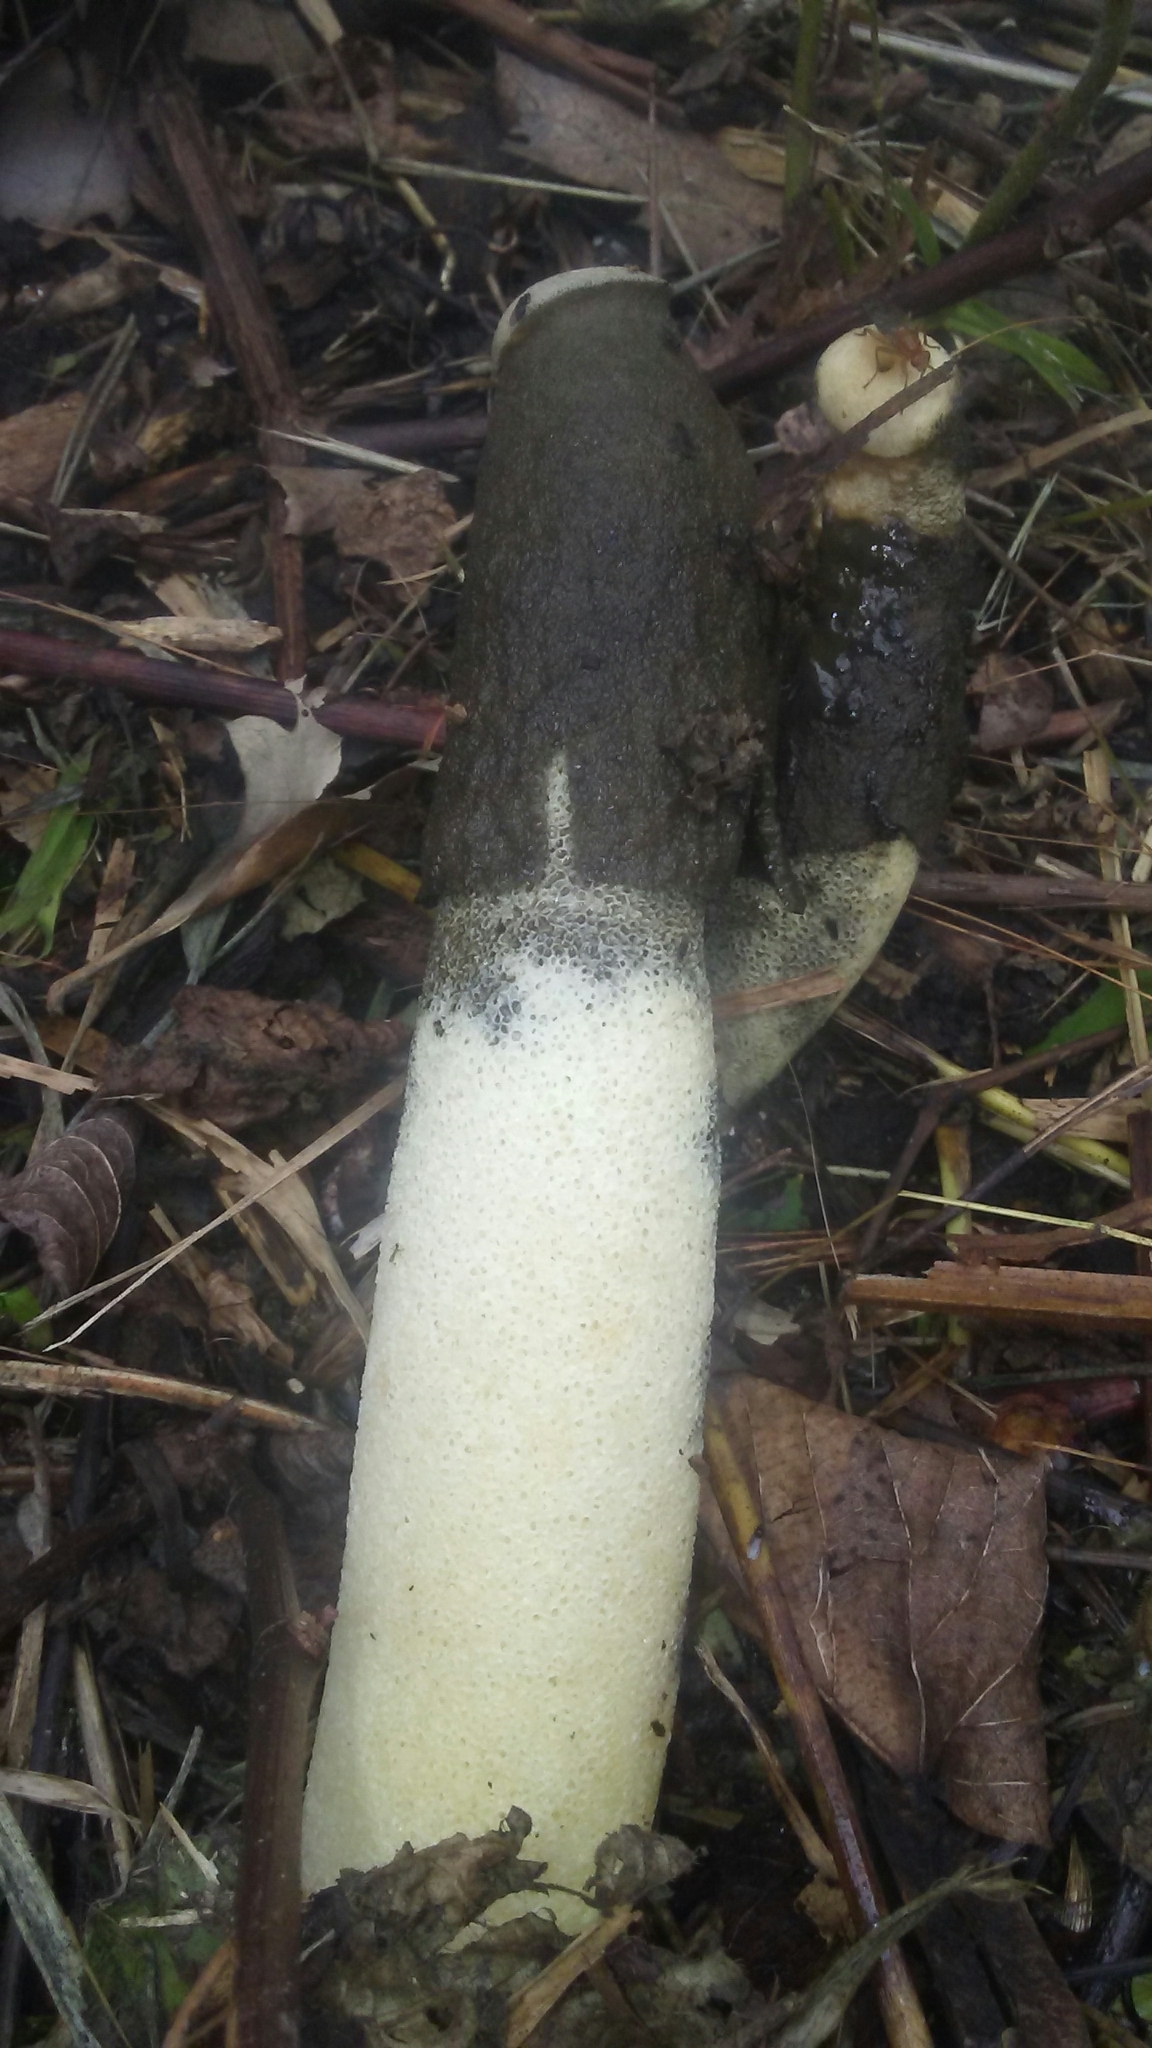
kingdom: Fungi
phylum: Basidiomycota
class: Agaricomycetes
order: Phallales
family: Phallaceae
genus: Phallus
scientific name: Phallus ravenelii
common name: Ravenel's stinkhorn
